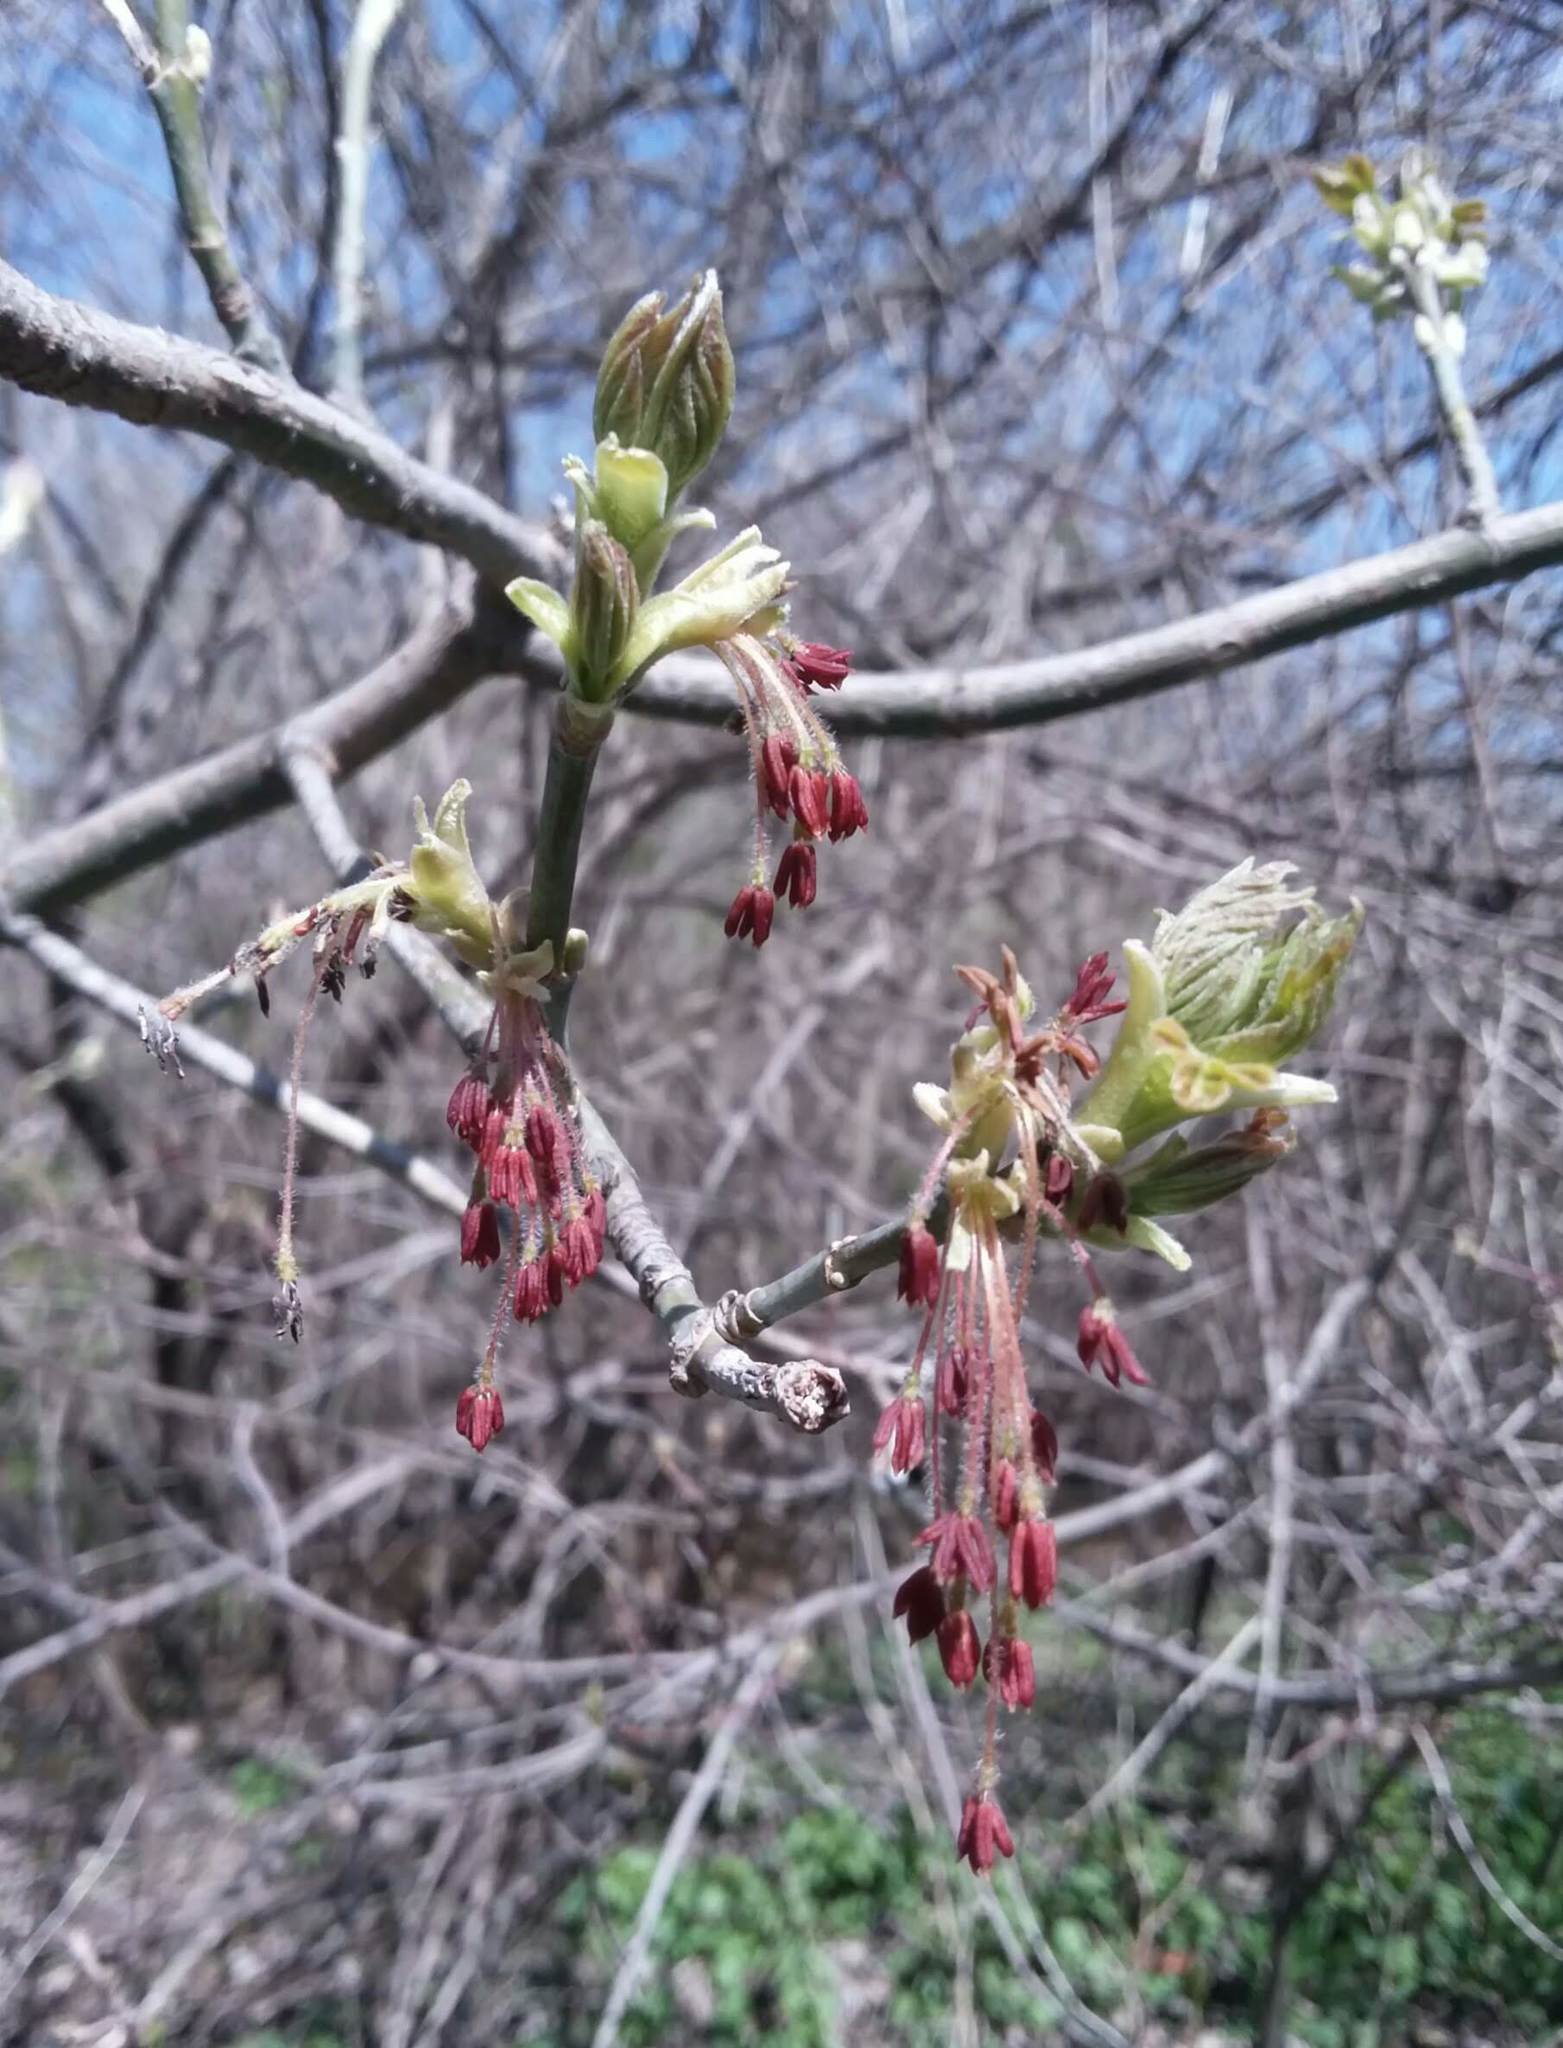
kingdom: Plantae
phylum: Tracheophyta
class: Magnoliopsida
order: Sapindales
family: Sapindaceae
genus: Acer
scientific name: Acer negundo
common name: Ashleaf maple
